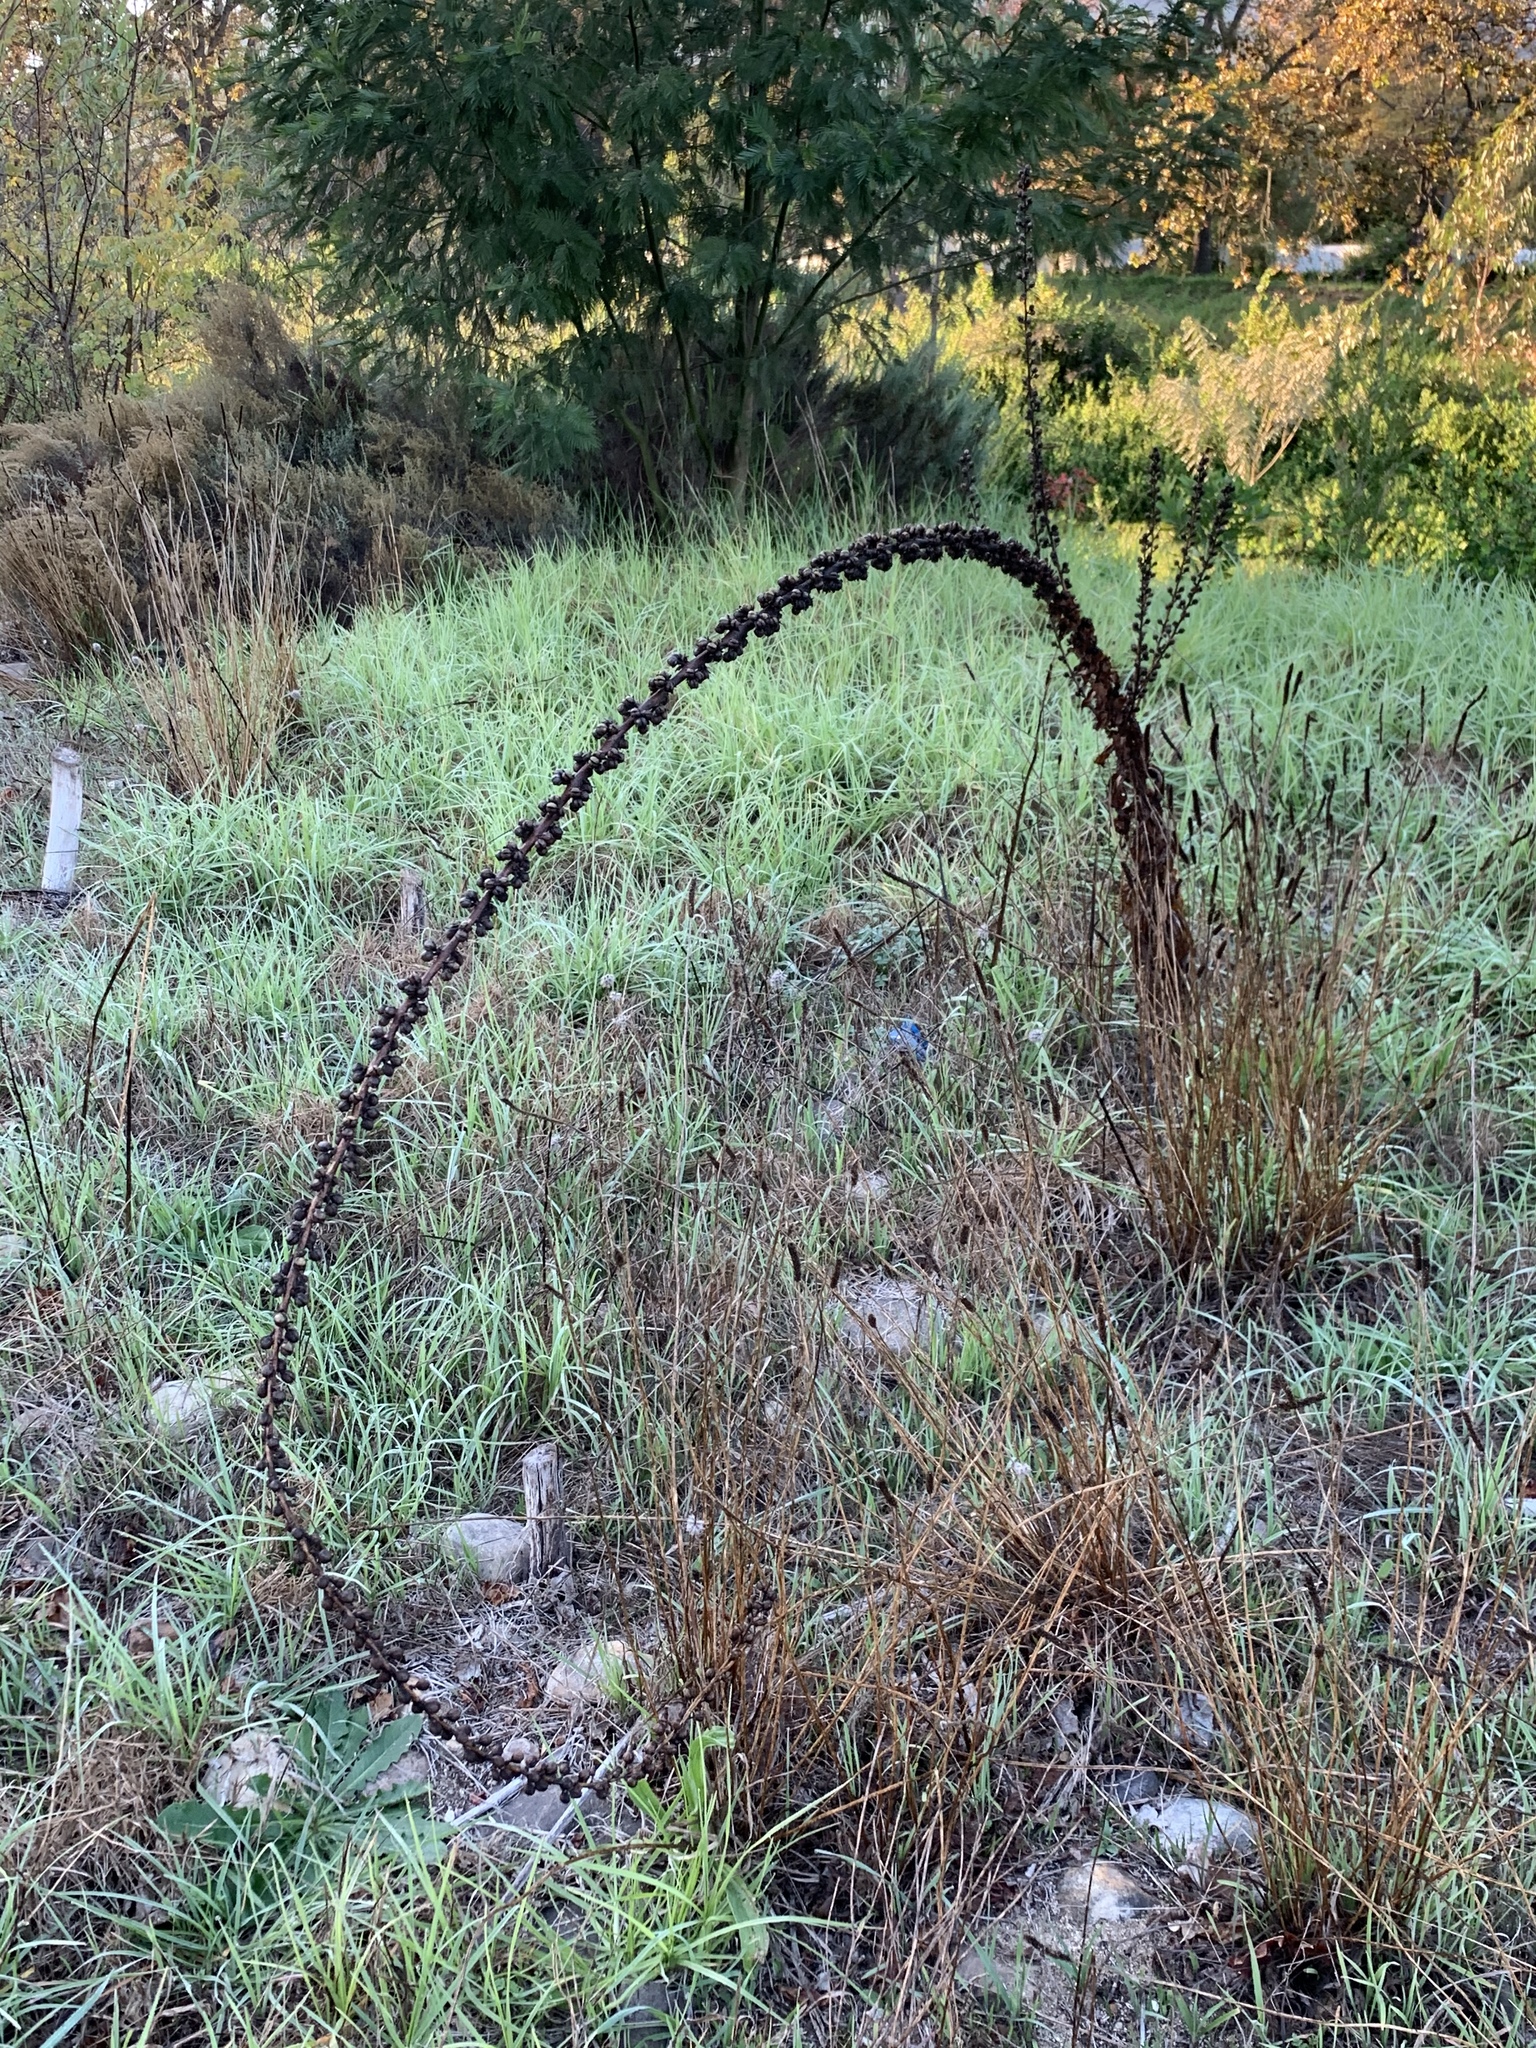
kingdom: Plantae
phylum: Tracheophyta
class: Magnoliopsida
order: Lamiales
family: Scrophulariaceae
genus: Verbascum
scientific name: Verbascum virgatum
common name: Twiggy mullein
